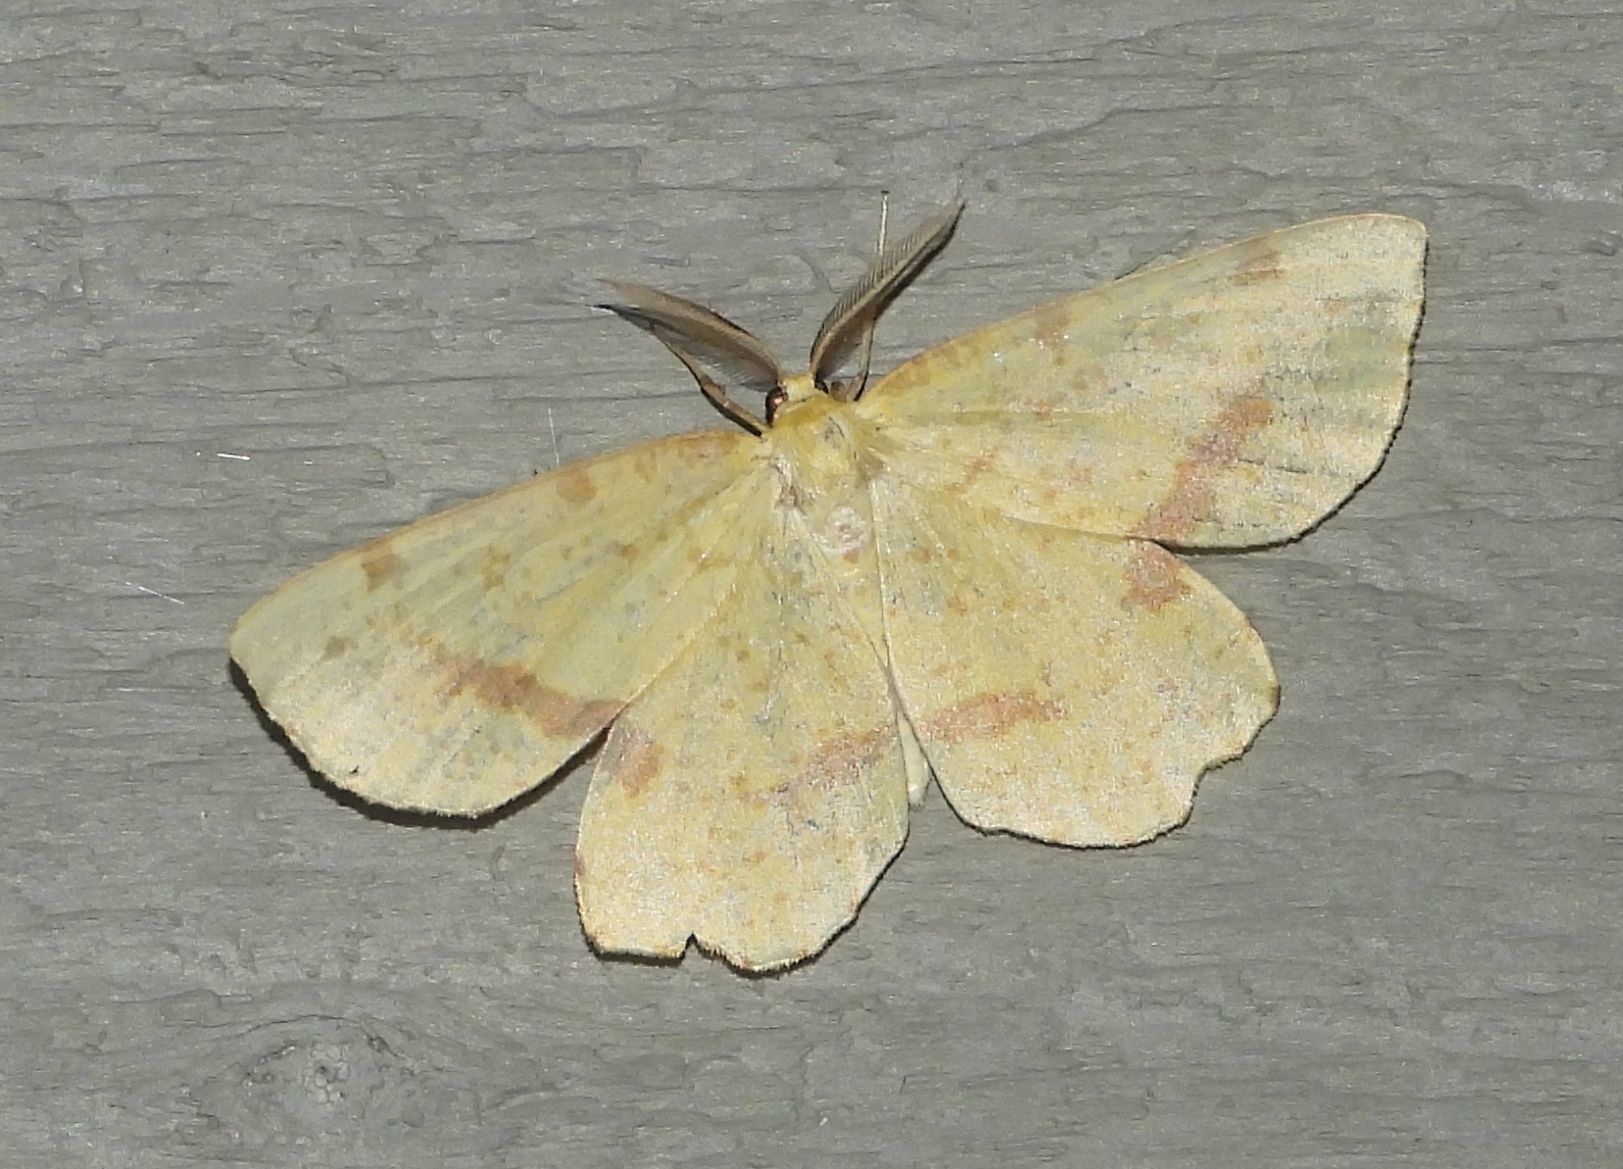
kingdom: Animalia
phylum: Arthropoda
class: Insecta
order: Lepidoptera
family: Geometridae
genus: Xanthotype
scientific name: Xanthotype
